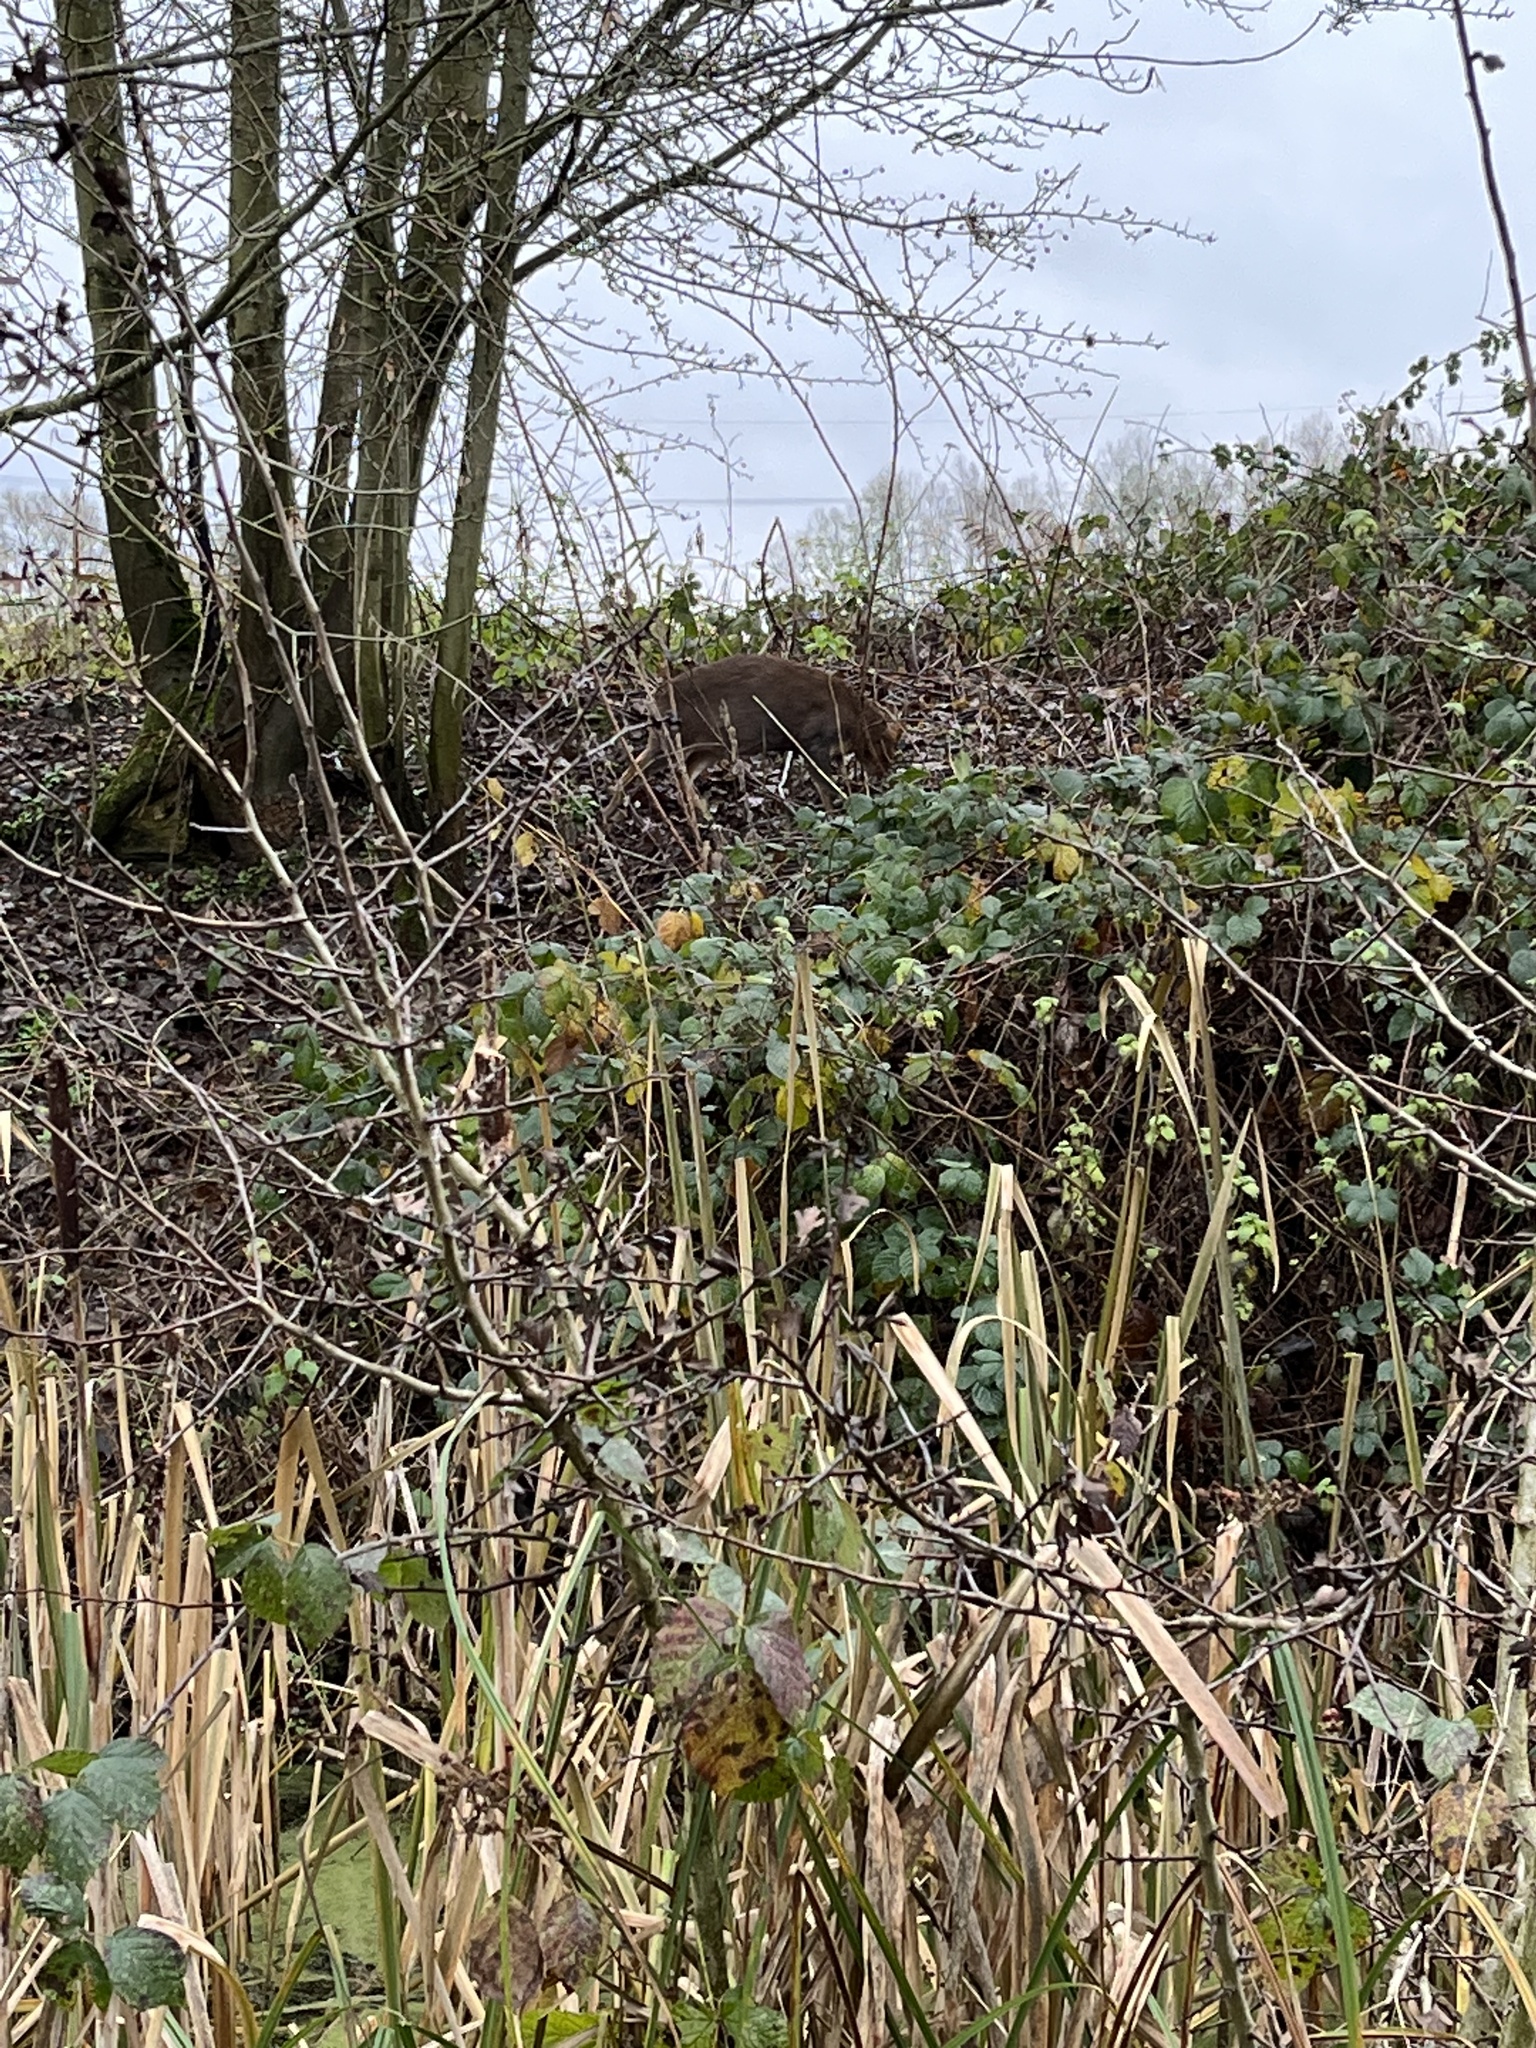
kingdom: Animalia
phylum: Chordata
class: Mammalia
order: Artiodactyla
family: Cervidae
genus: Muntiacus
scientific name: Muntiacus reevesi
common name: Reeves' muntjac
